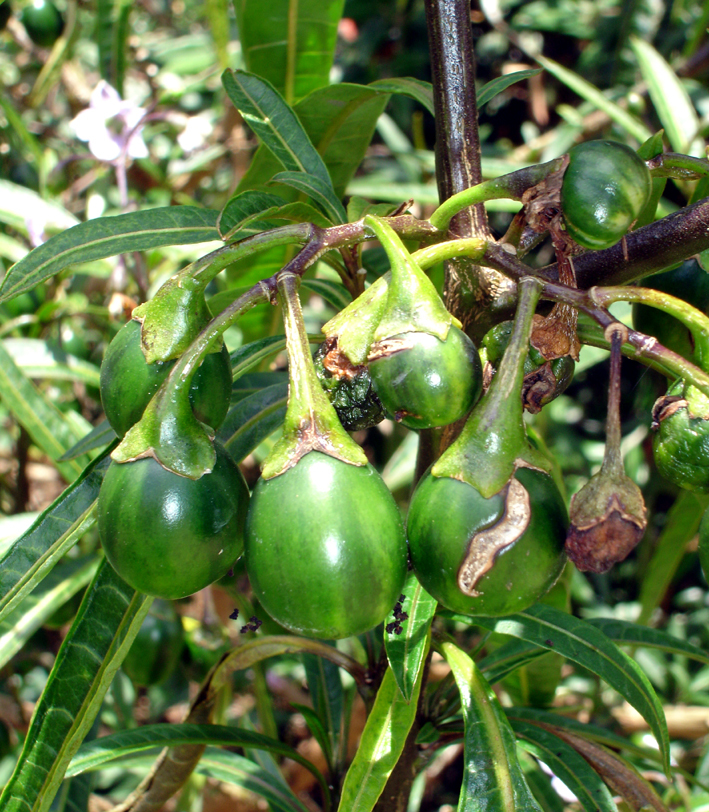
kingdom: Plantae
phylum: Tracheophyta
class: Magnoliopsida
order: Solanales
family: Solanaceae
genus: Solanum
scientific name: Solanum aviculare
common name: New zealand nightshade
